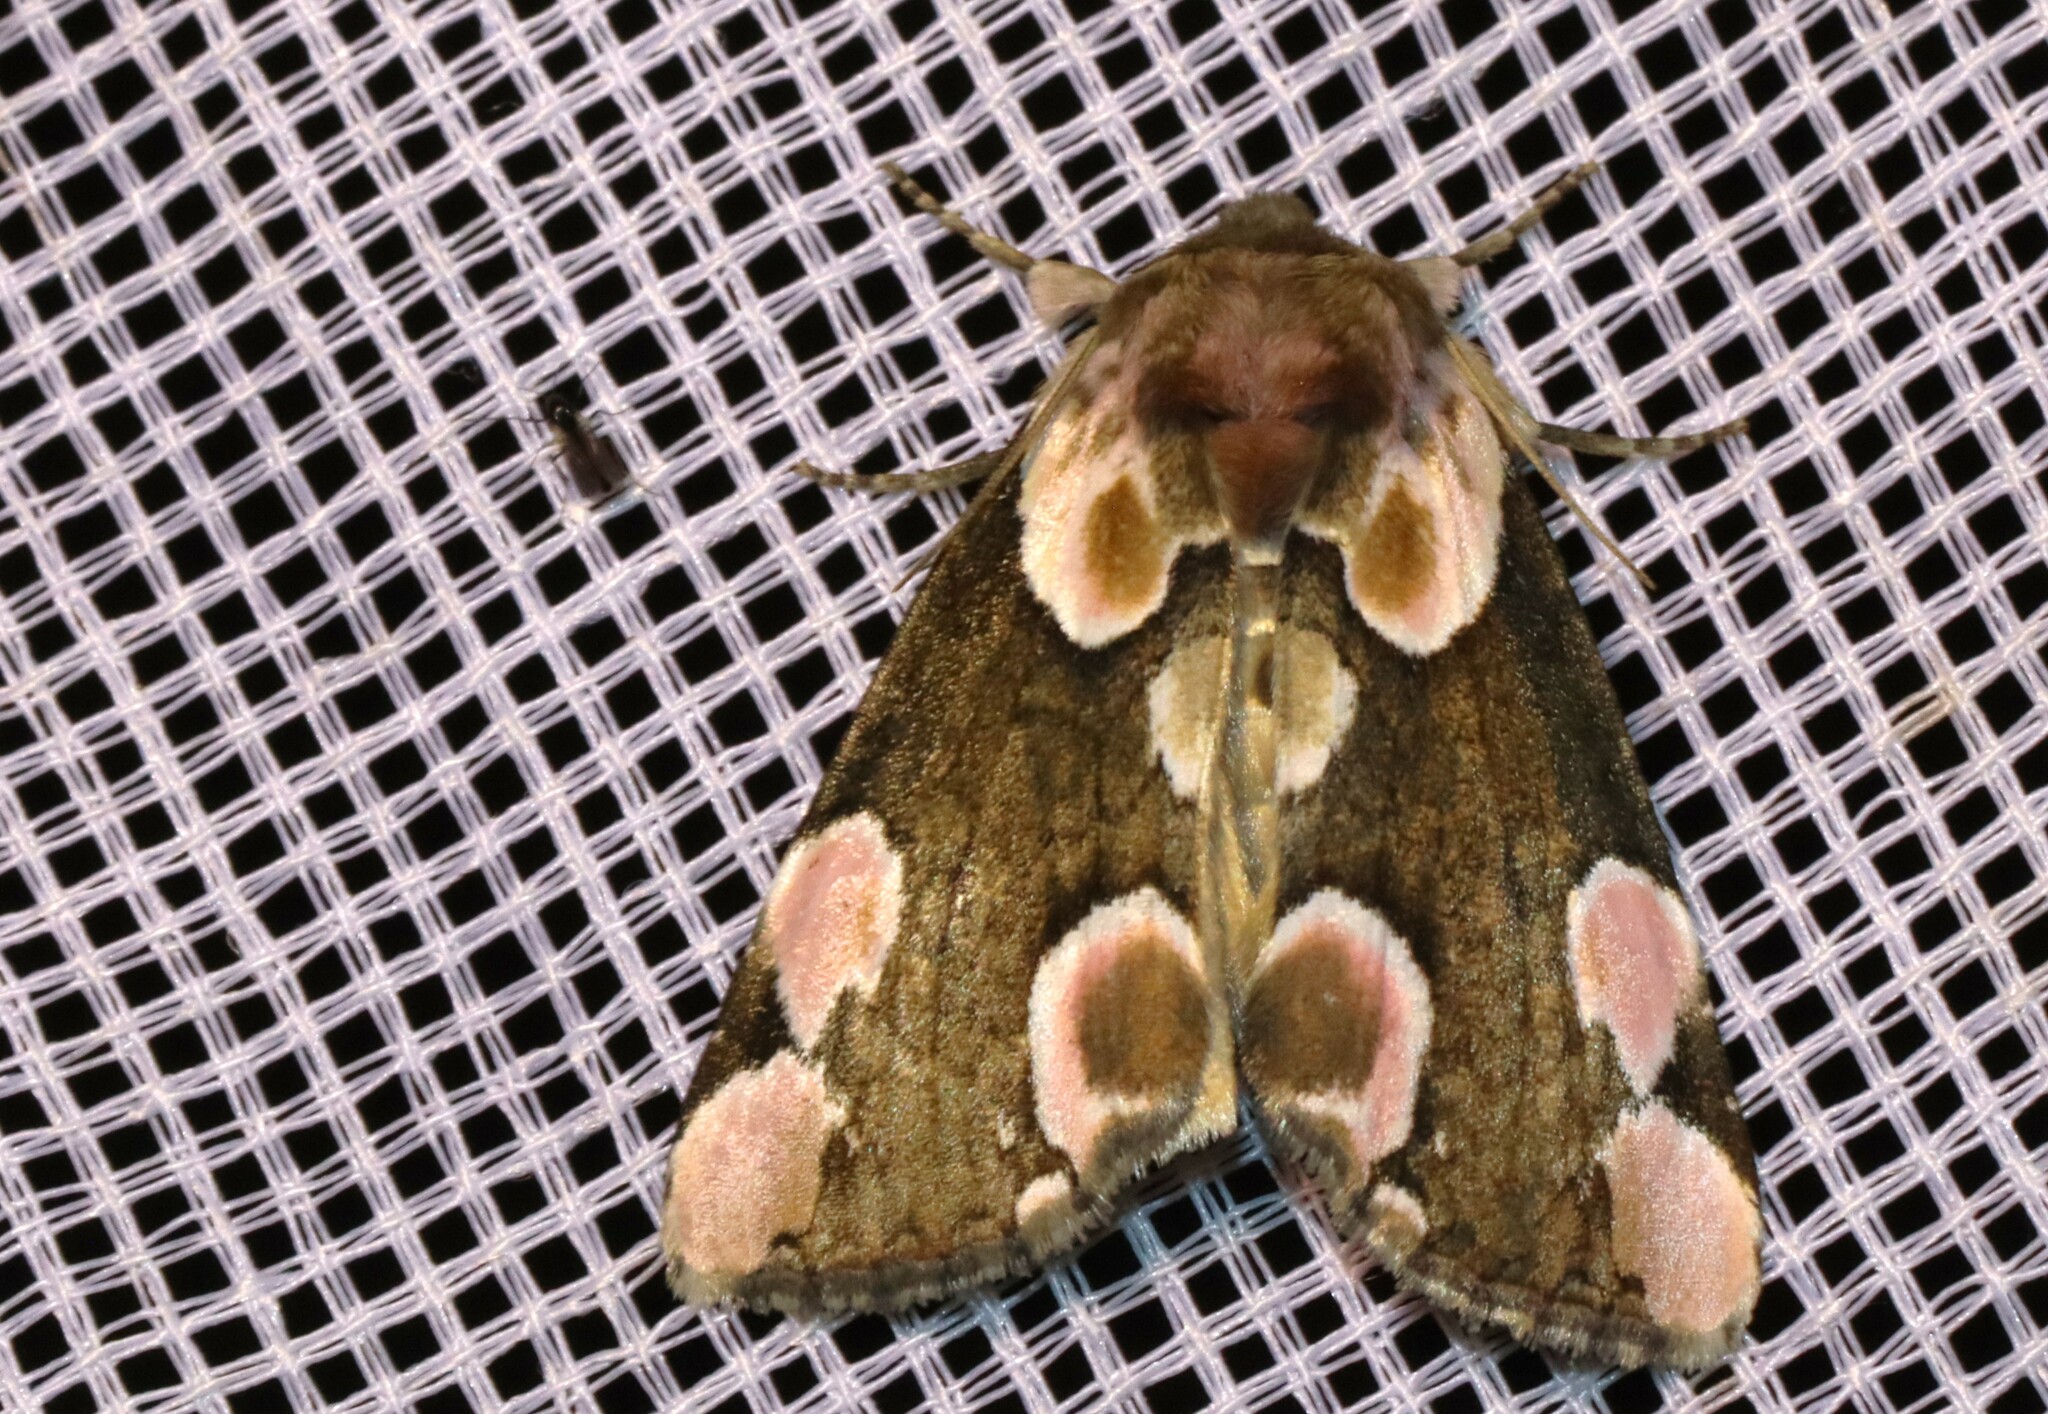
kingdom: Animalia
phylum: Arthropoda
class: Insecta
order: Lepidoptera
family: Drepanidae
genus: Thyatira
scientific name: Thyatira batis
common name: Peach blossom
